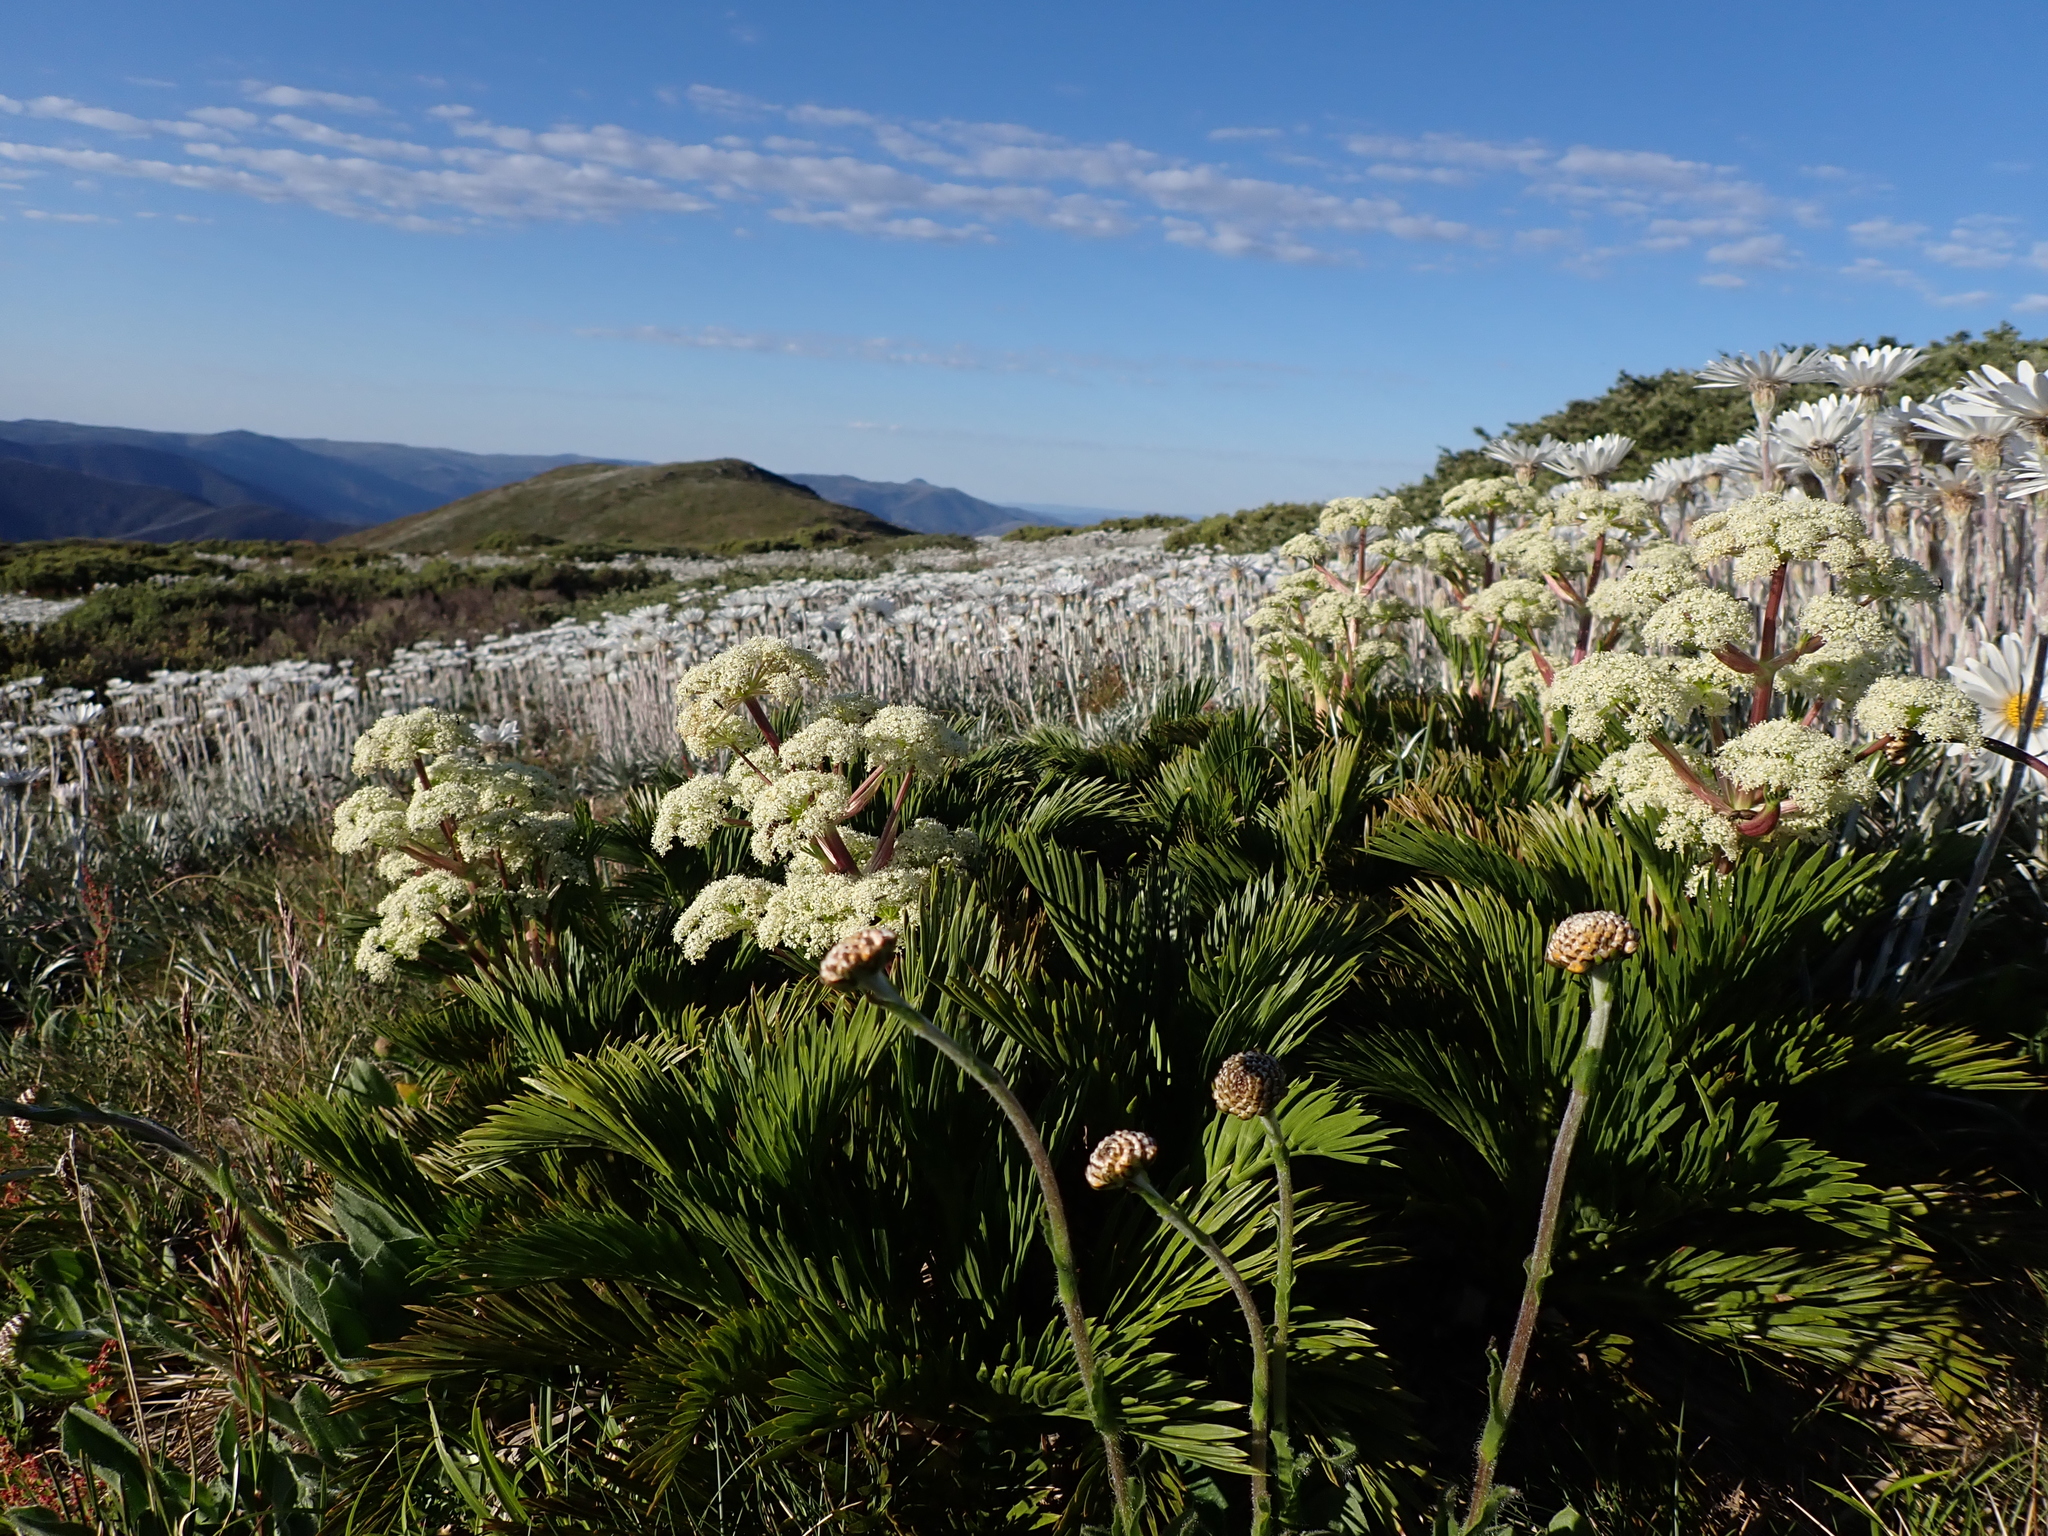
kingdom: Plantae
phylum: Tracheophyta
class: Magnoliopsida
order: Apiales
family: Apiaceae
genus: Aciphylla
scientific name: Aciphylla glacialis
